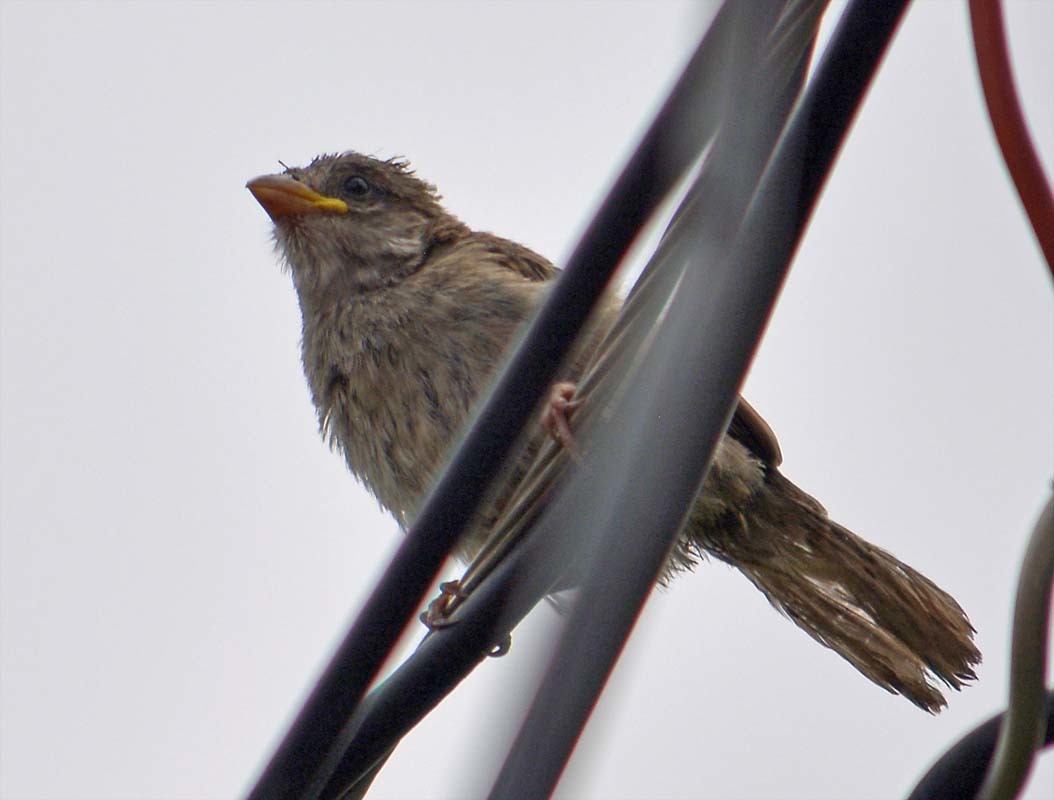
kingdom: Animalia
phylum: Chordata
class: Aves
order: Passeriformes
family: Passeridae
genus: Passer
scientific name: Passer domesticus
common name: House sparrow
